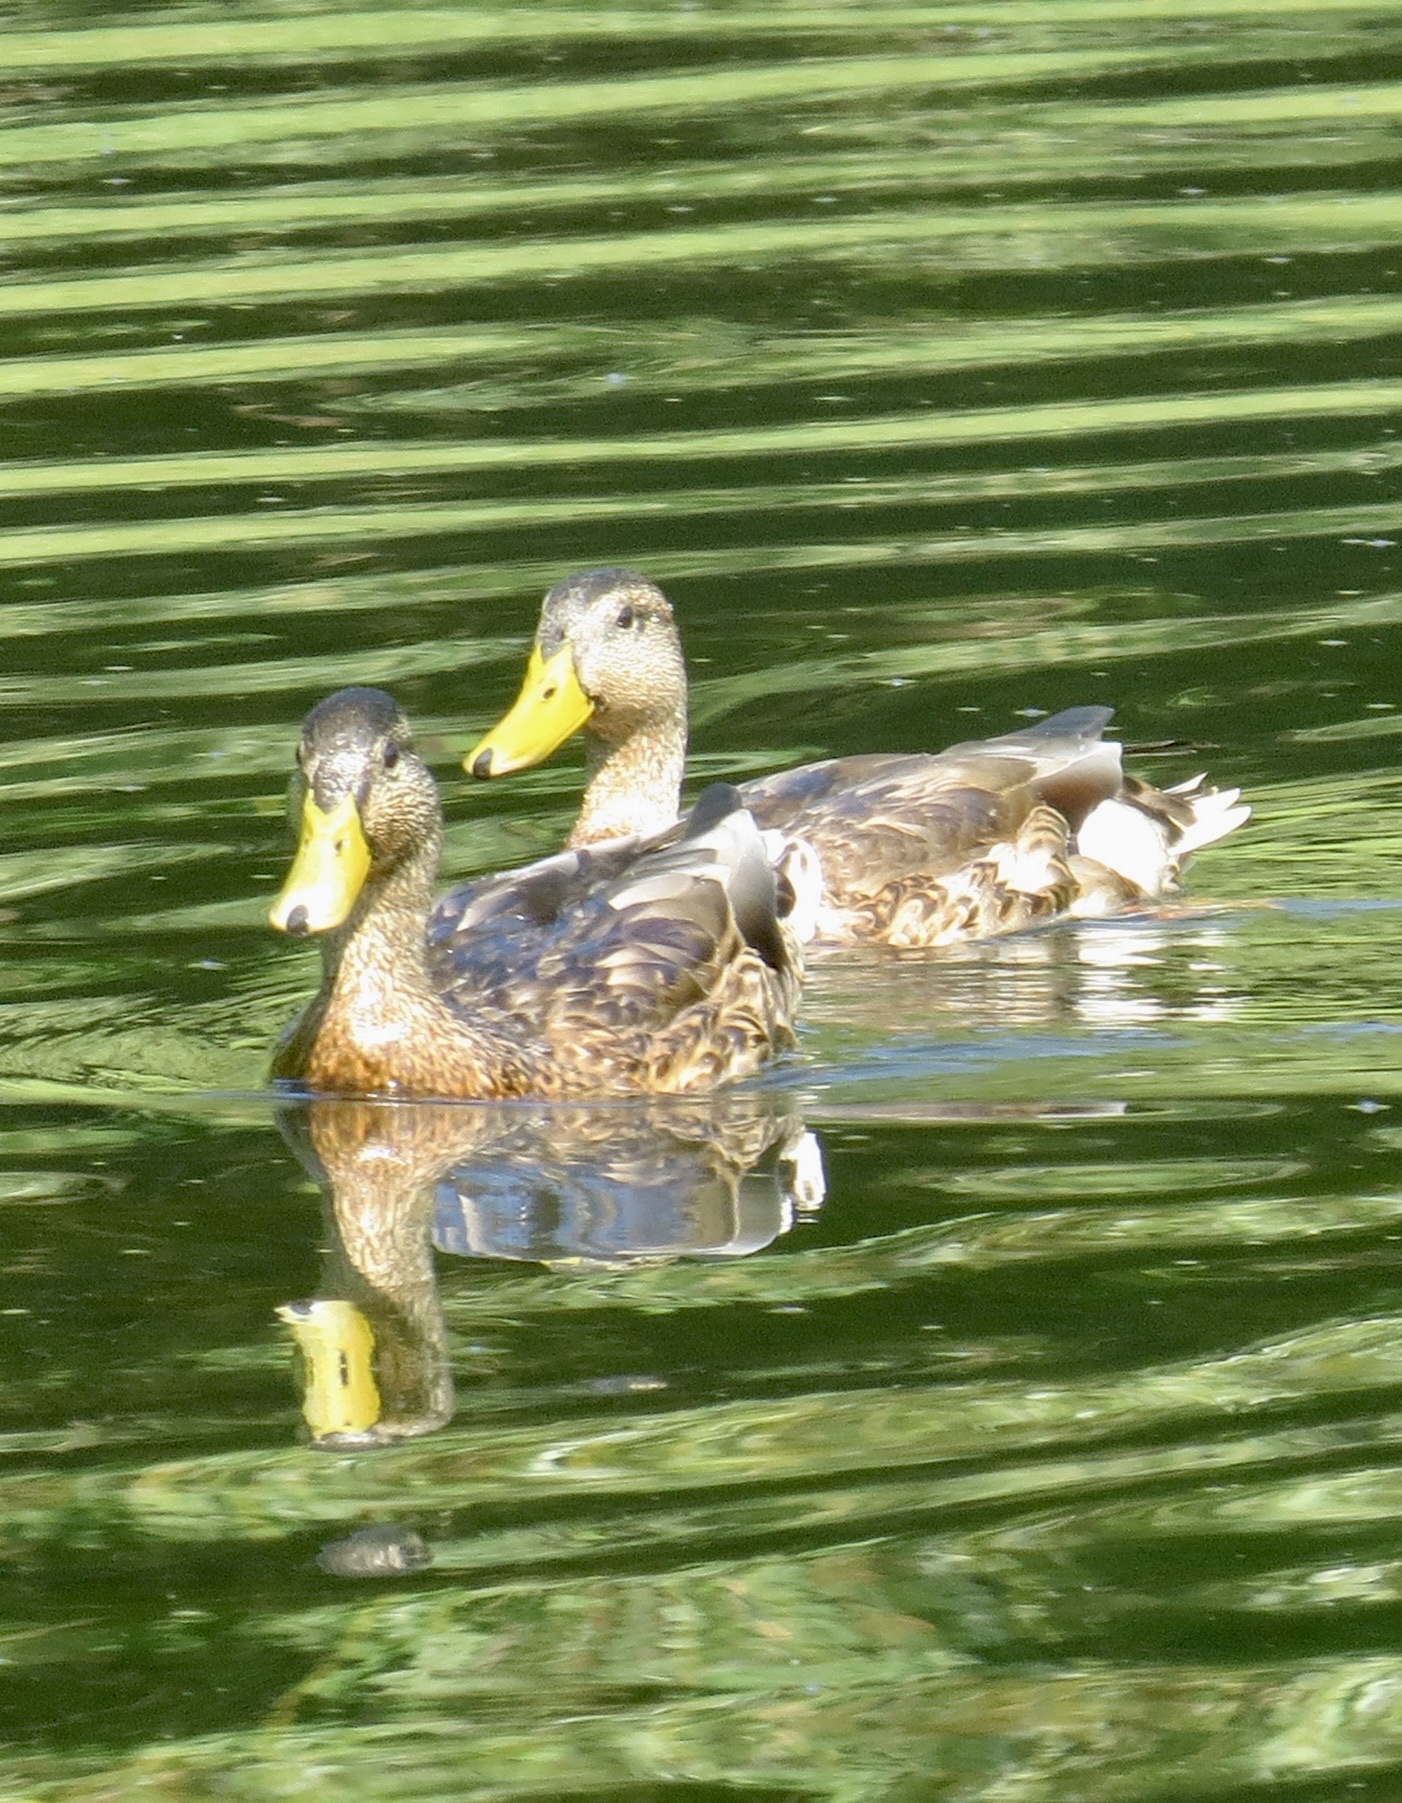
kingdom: Animalia
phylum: Chordata
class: Aves
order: Anseriformes
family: Anatidae
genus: Anas
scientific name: Anas platyrhynchos
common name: Mallard
